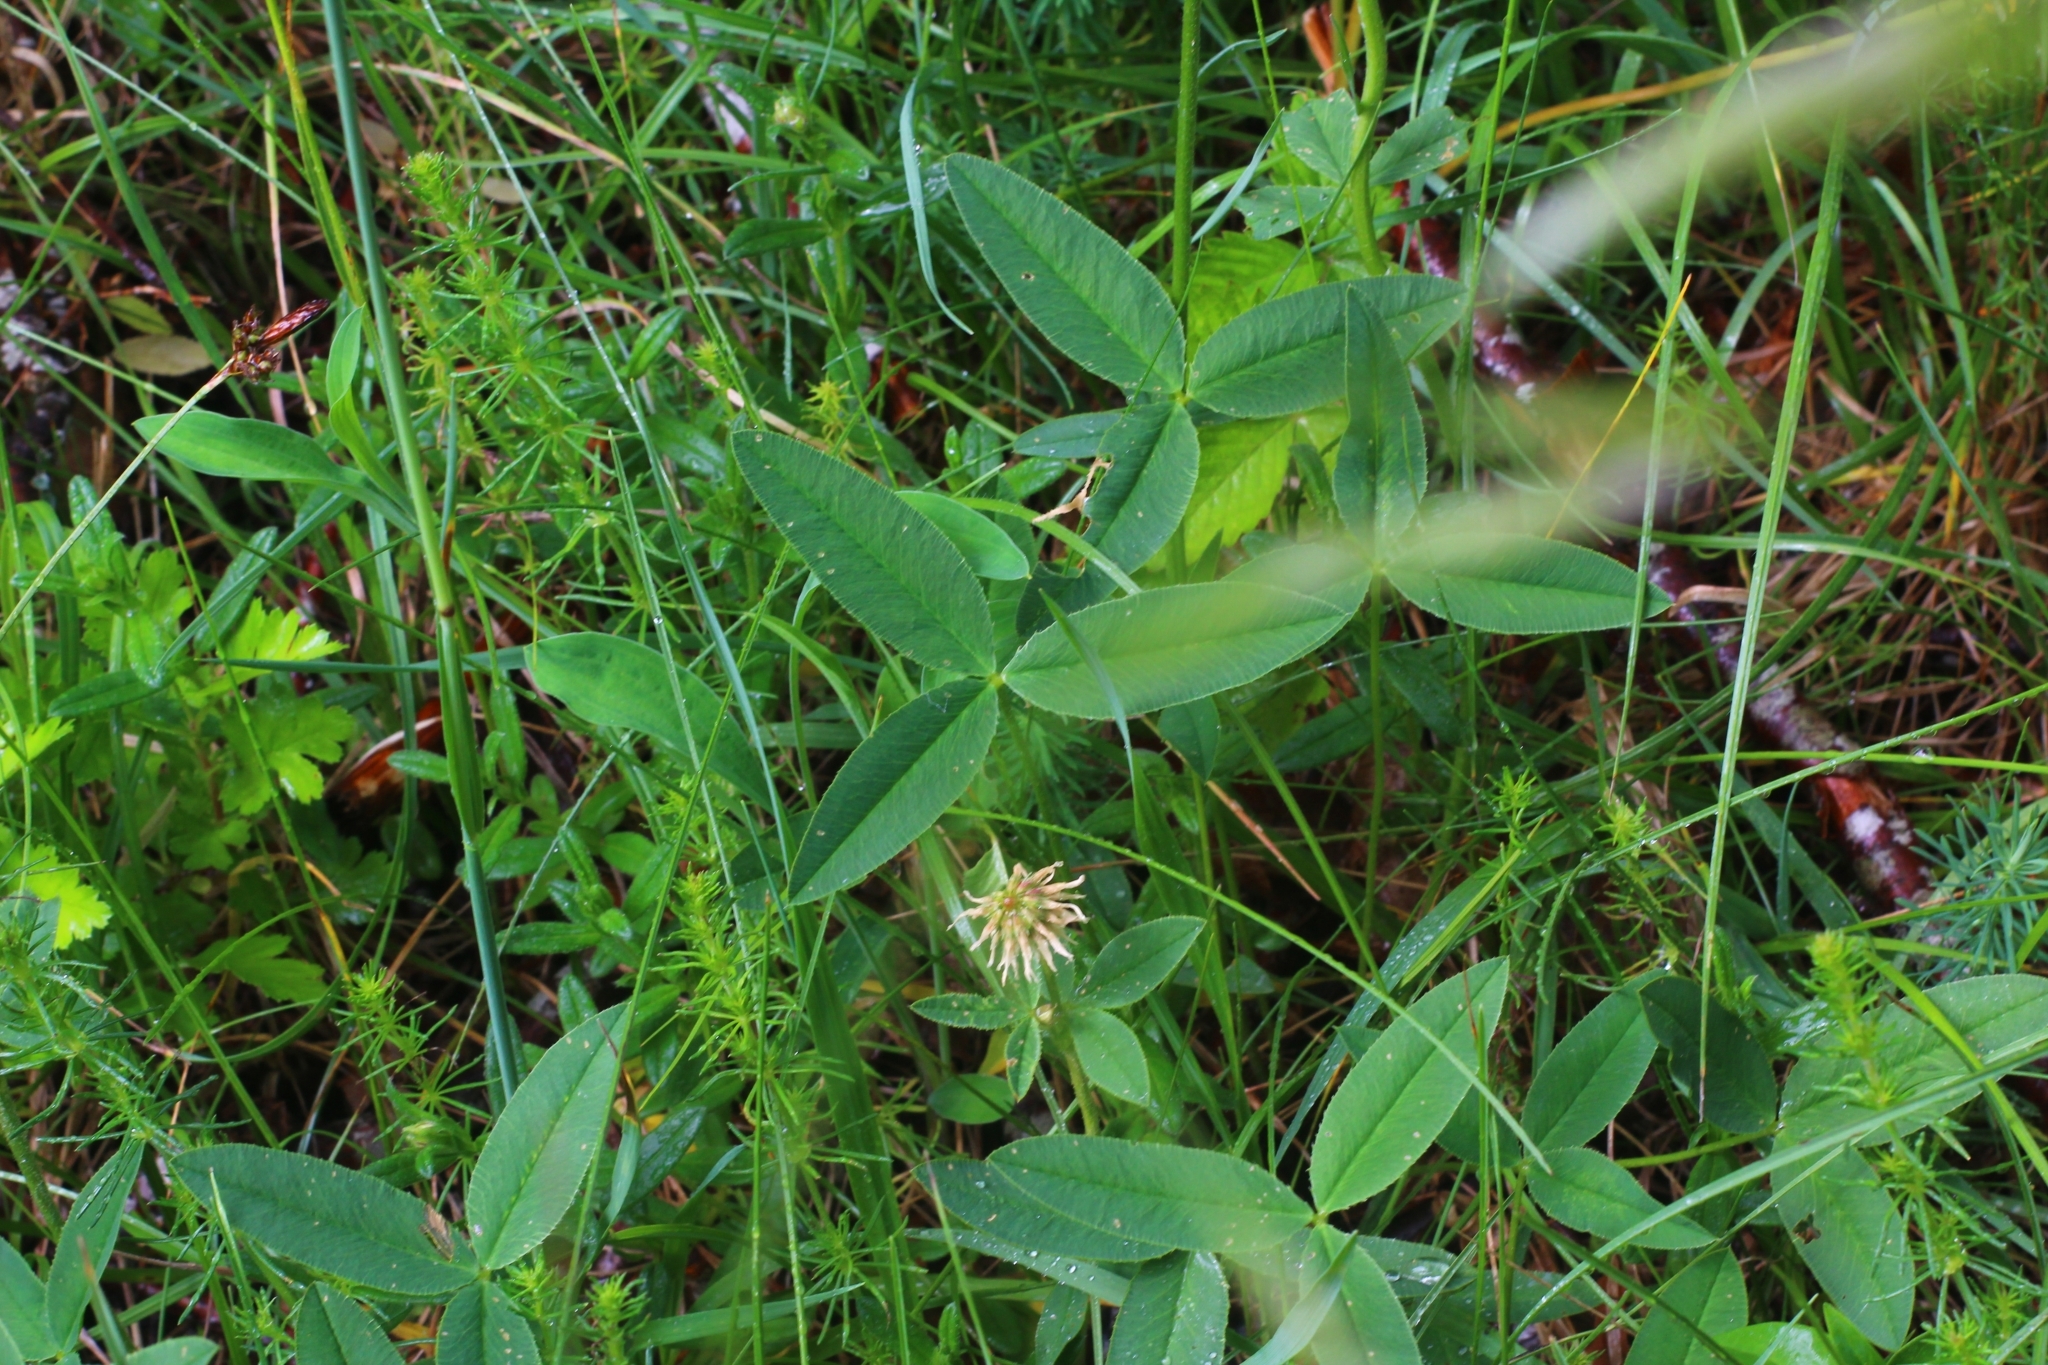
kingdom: Plantae
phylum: Tracheophyta
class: Magnoliopsida
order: Fabales
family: Fabaceae
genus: Trifolium
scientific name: Trifolium montanum
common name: Mountain clover
